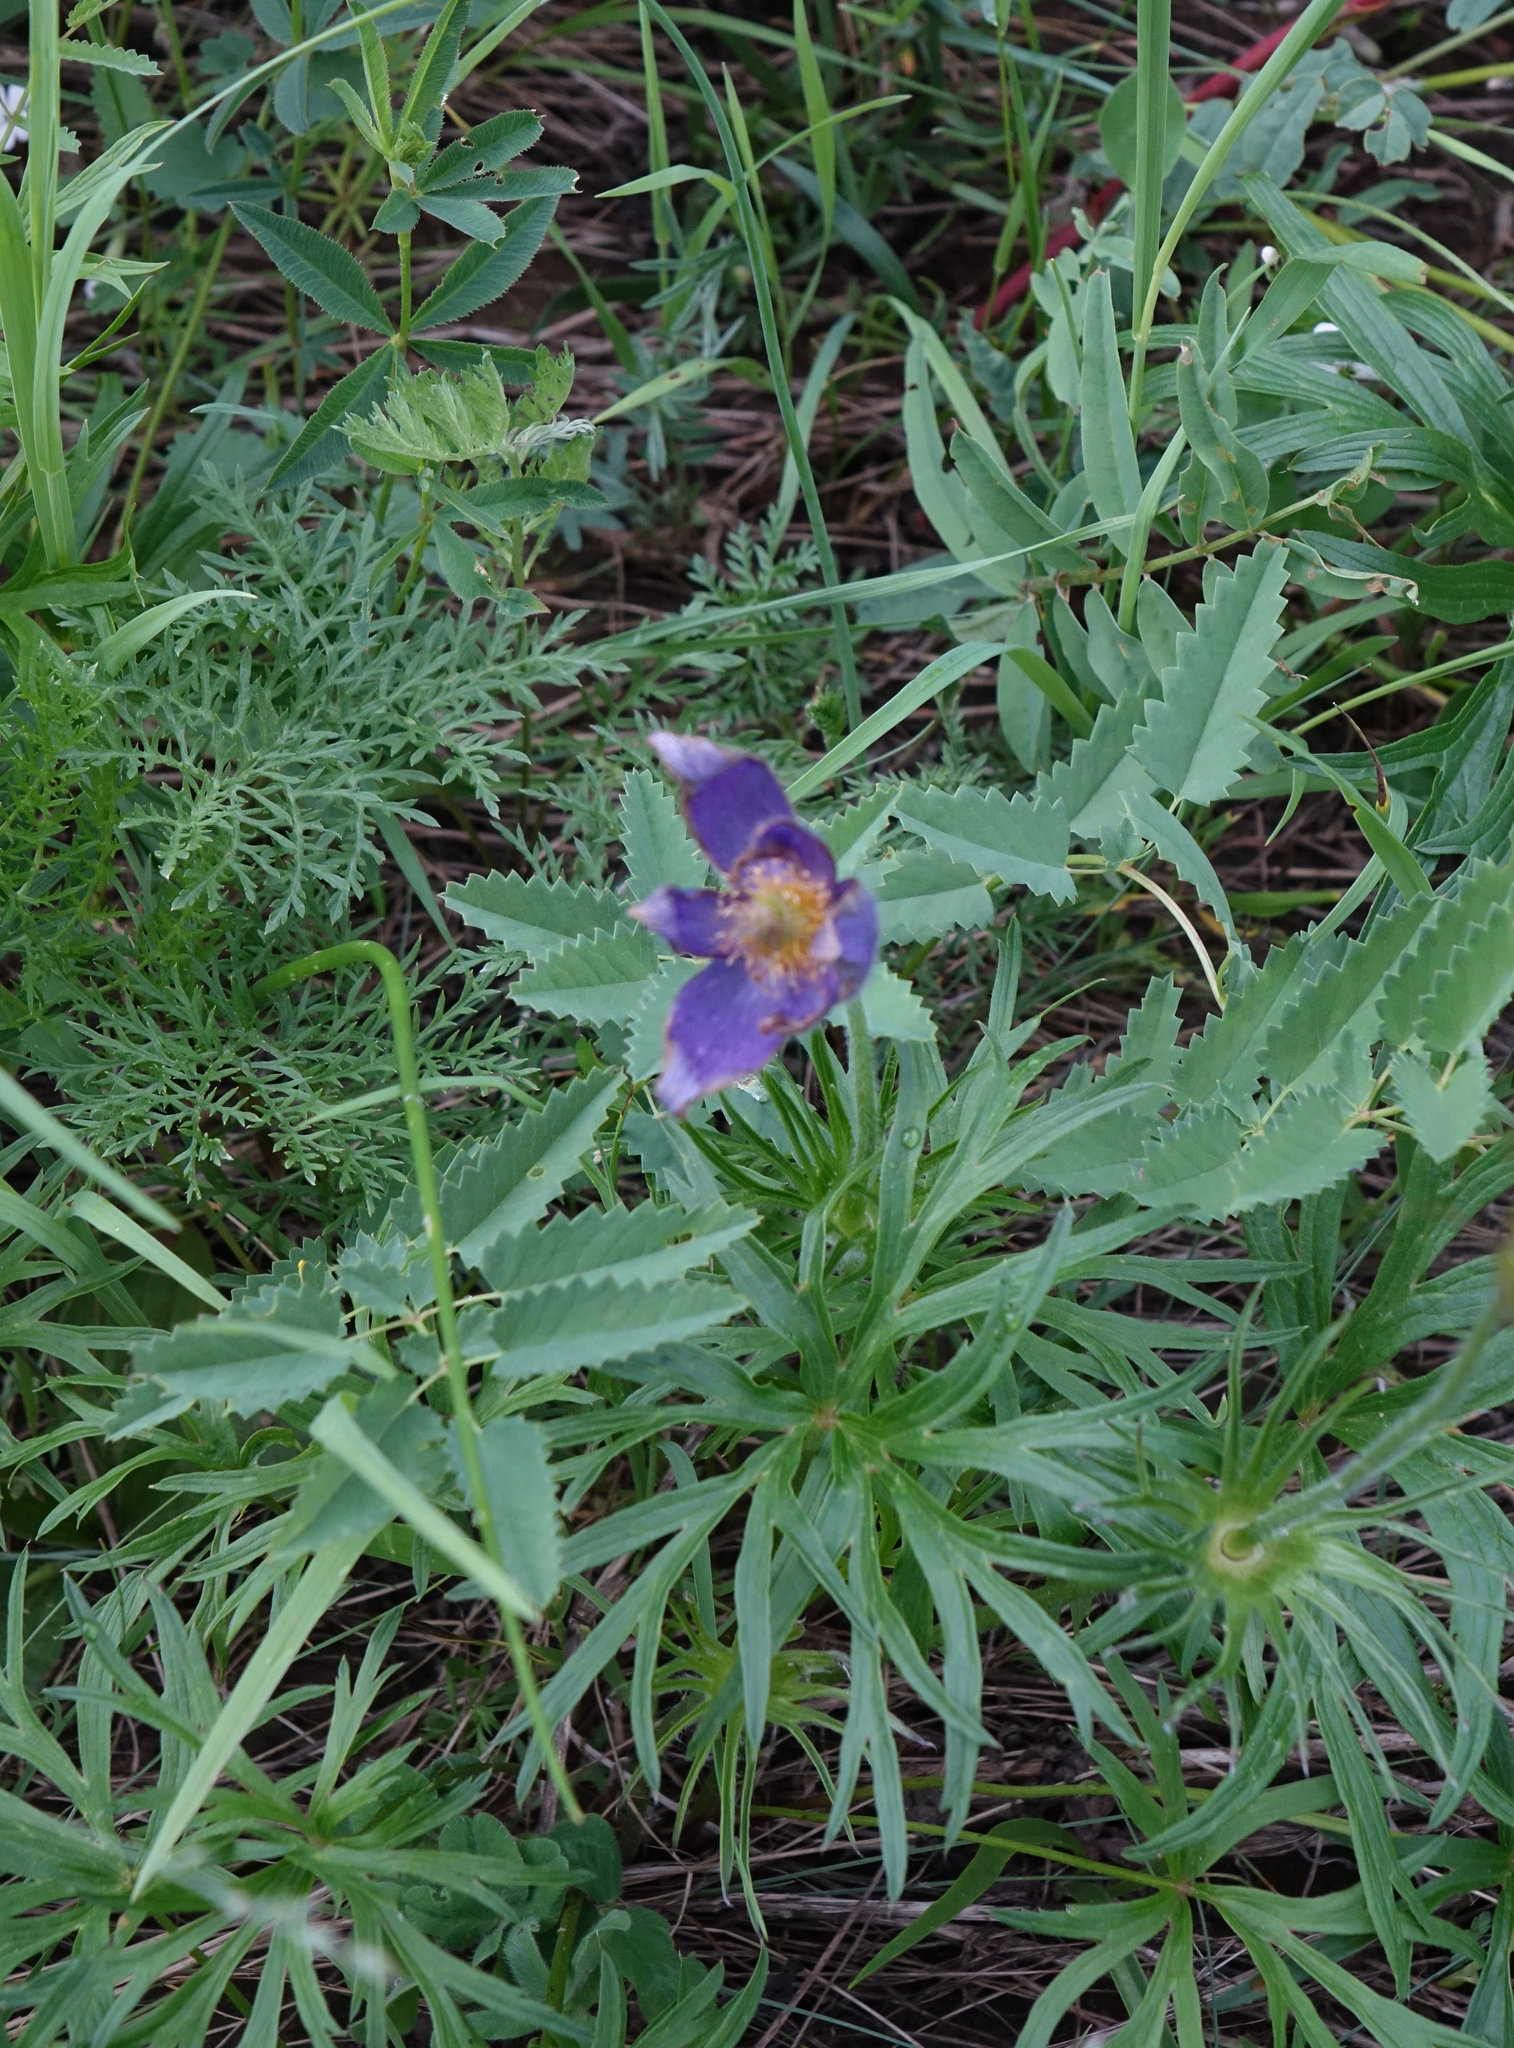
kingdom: Plantae
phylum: Tracheophyta
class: Magnoliopsida
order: Ranunculales
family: Ranunculaceae
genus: Pulsatilla
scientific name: Pulsatilla patens
